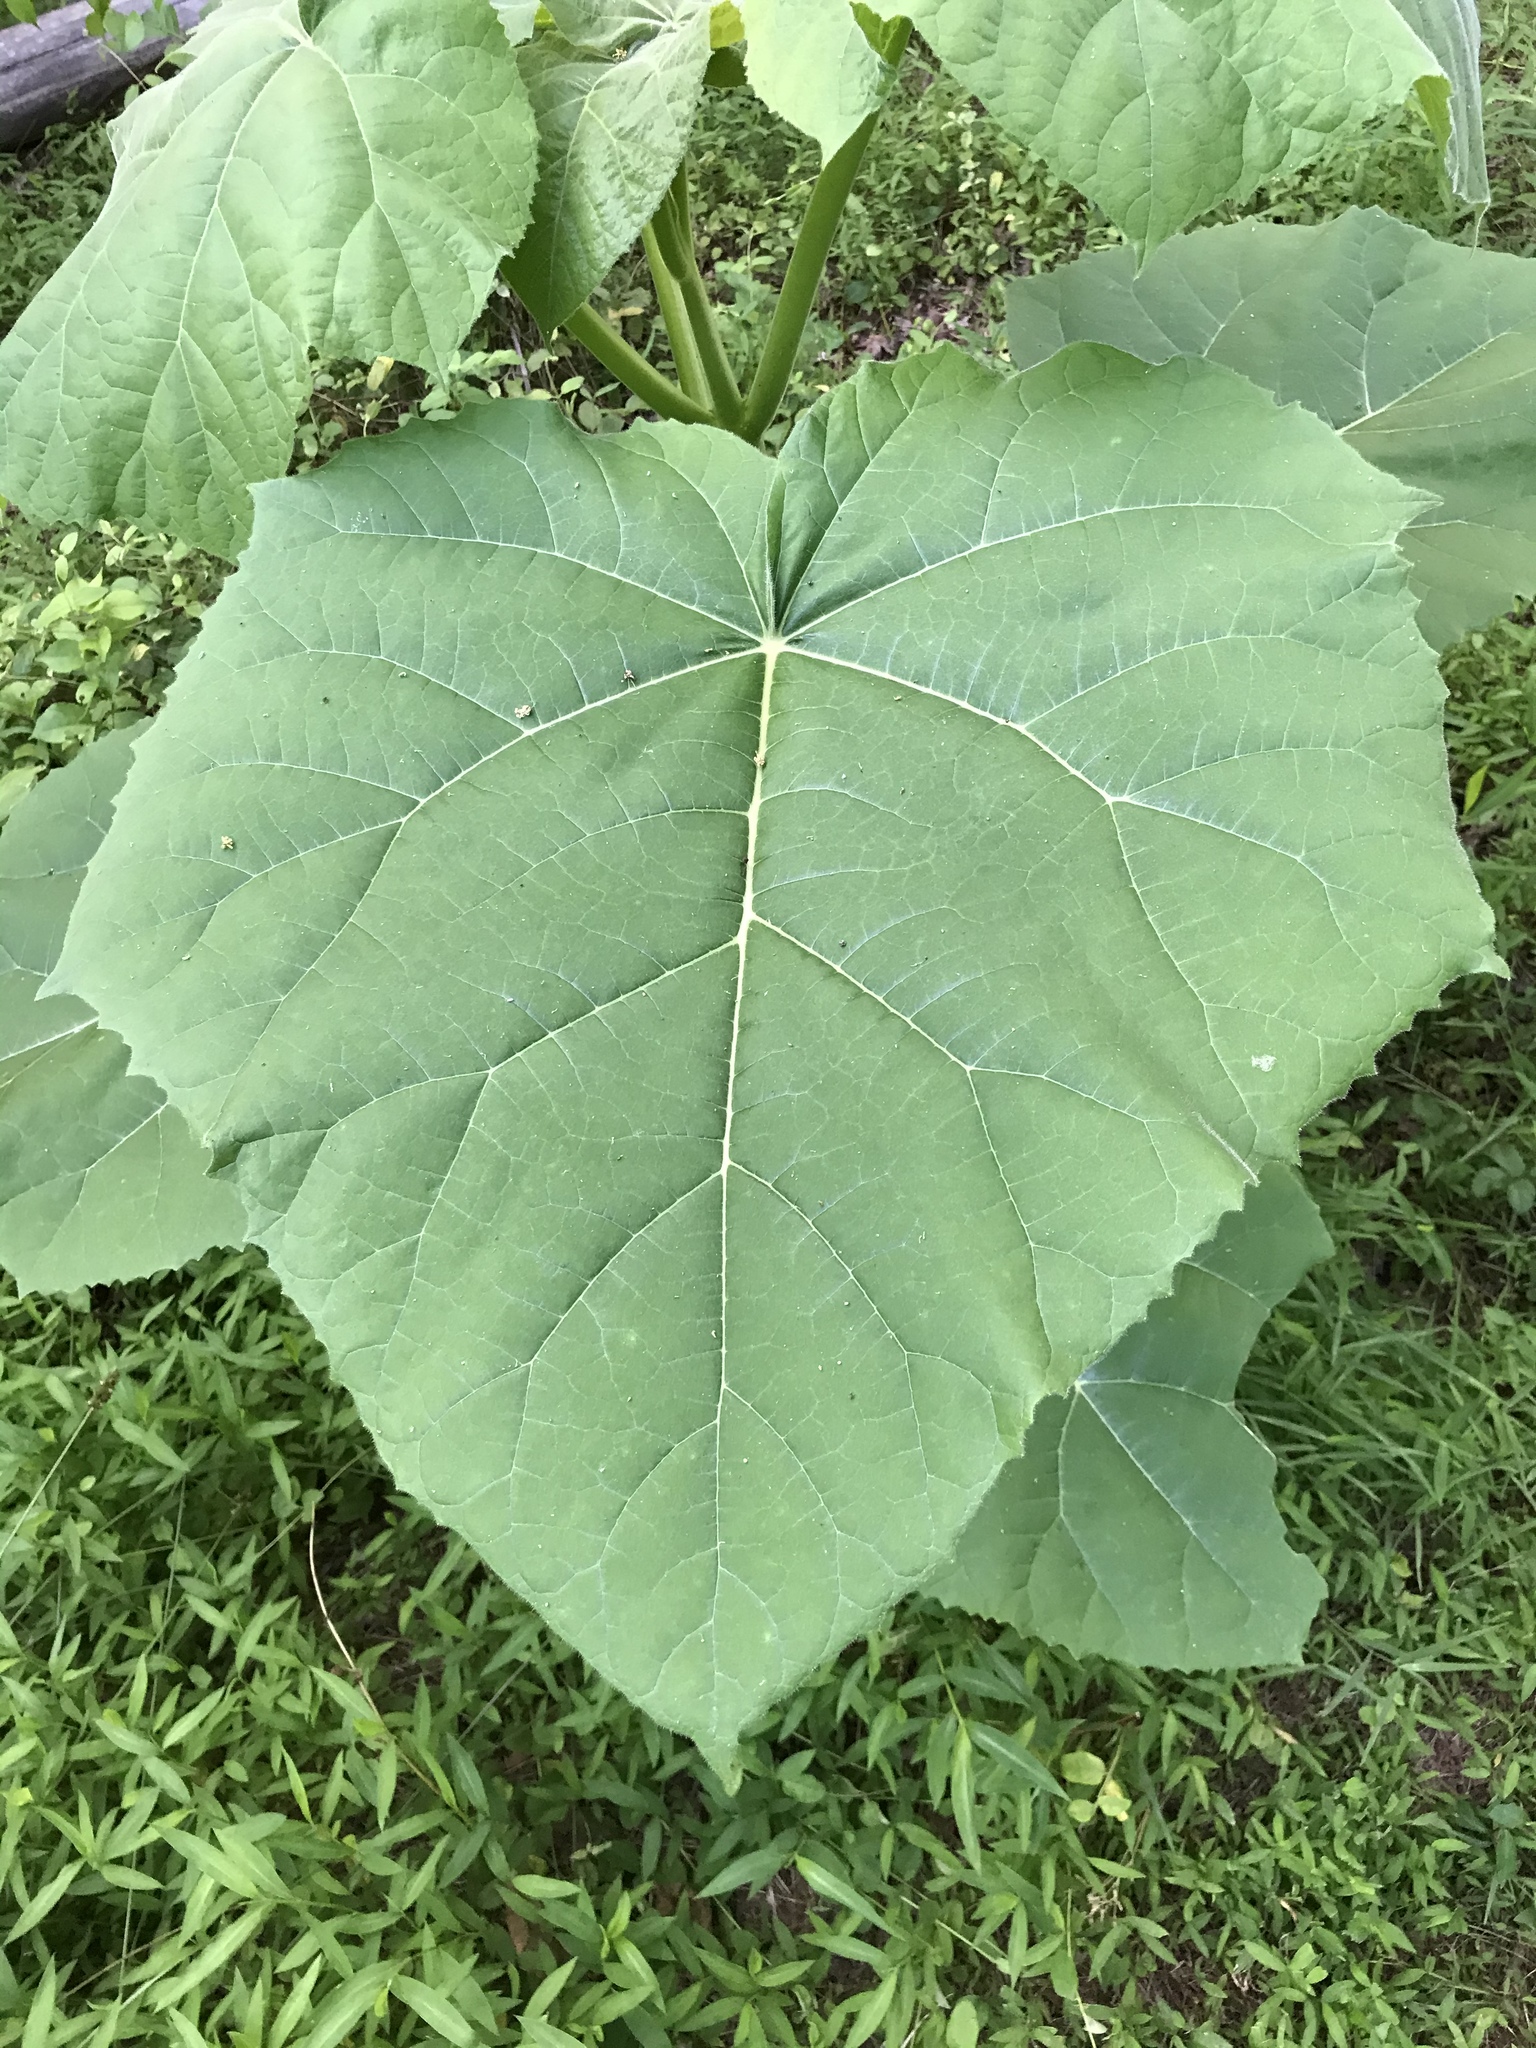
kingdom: Plantae
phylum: Tracheophyta
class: Magnoliopsida
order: Lamiales
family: Paulowniaceae
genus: Paulownia
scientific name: Paulownia tomentosa
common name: Foxglove-tree
